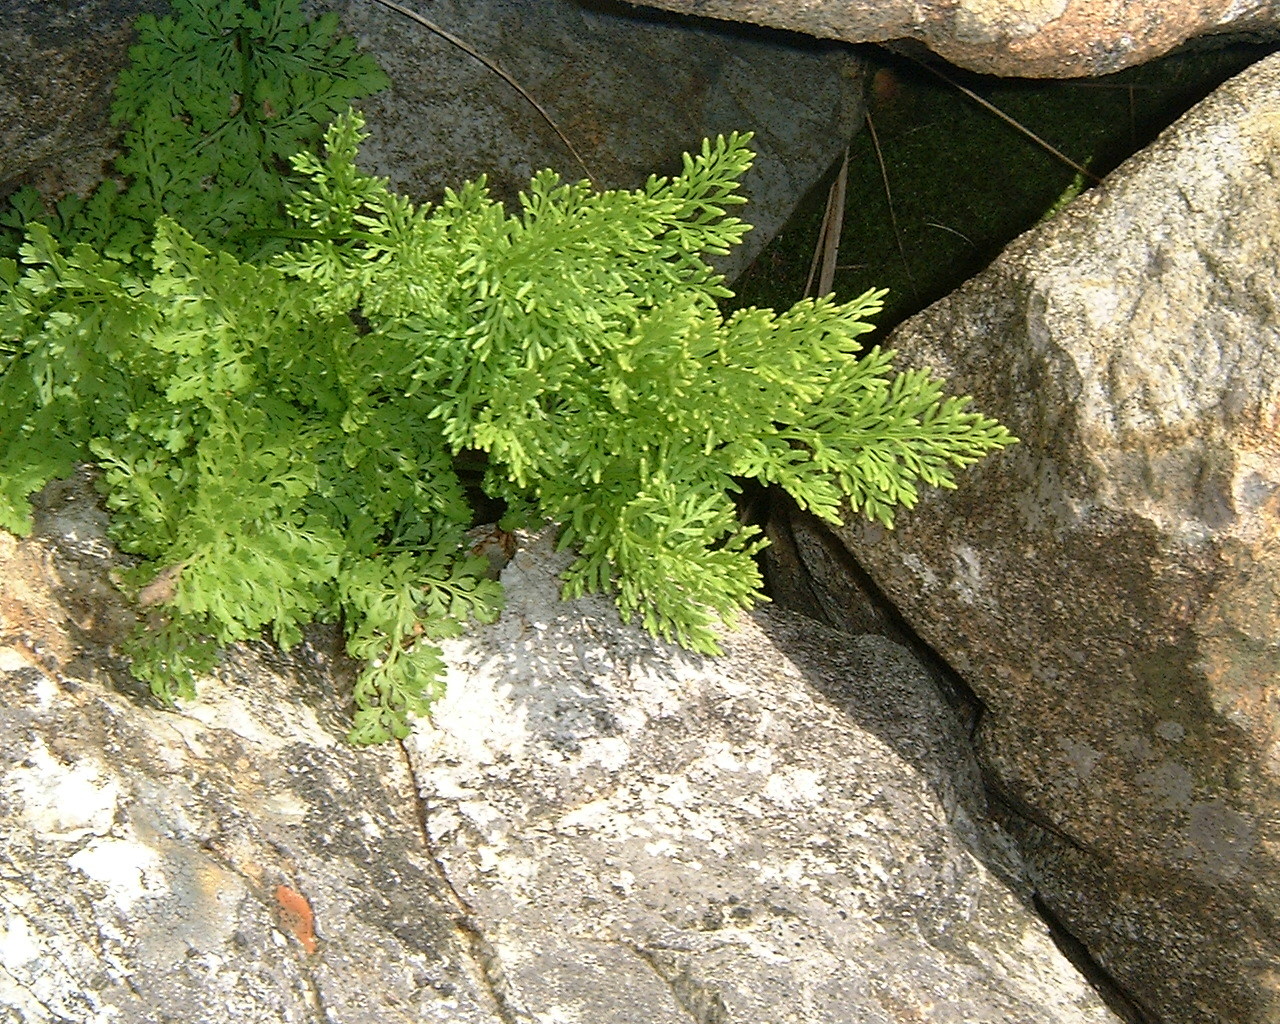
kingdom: Plantae
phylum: Tracheophyta
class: Polypodiopsida
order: Polypodiales
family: Pteridaceae
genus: Cryptogramma
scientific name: Cryptogramma crispa
